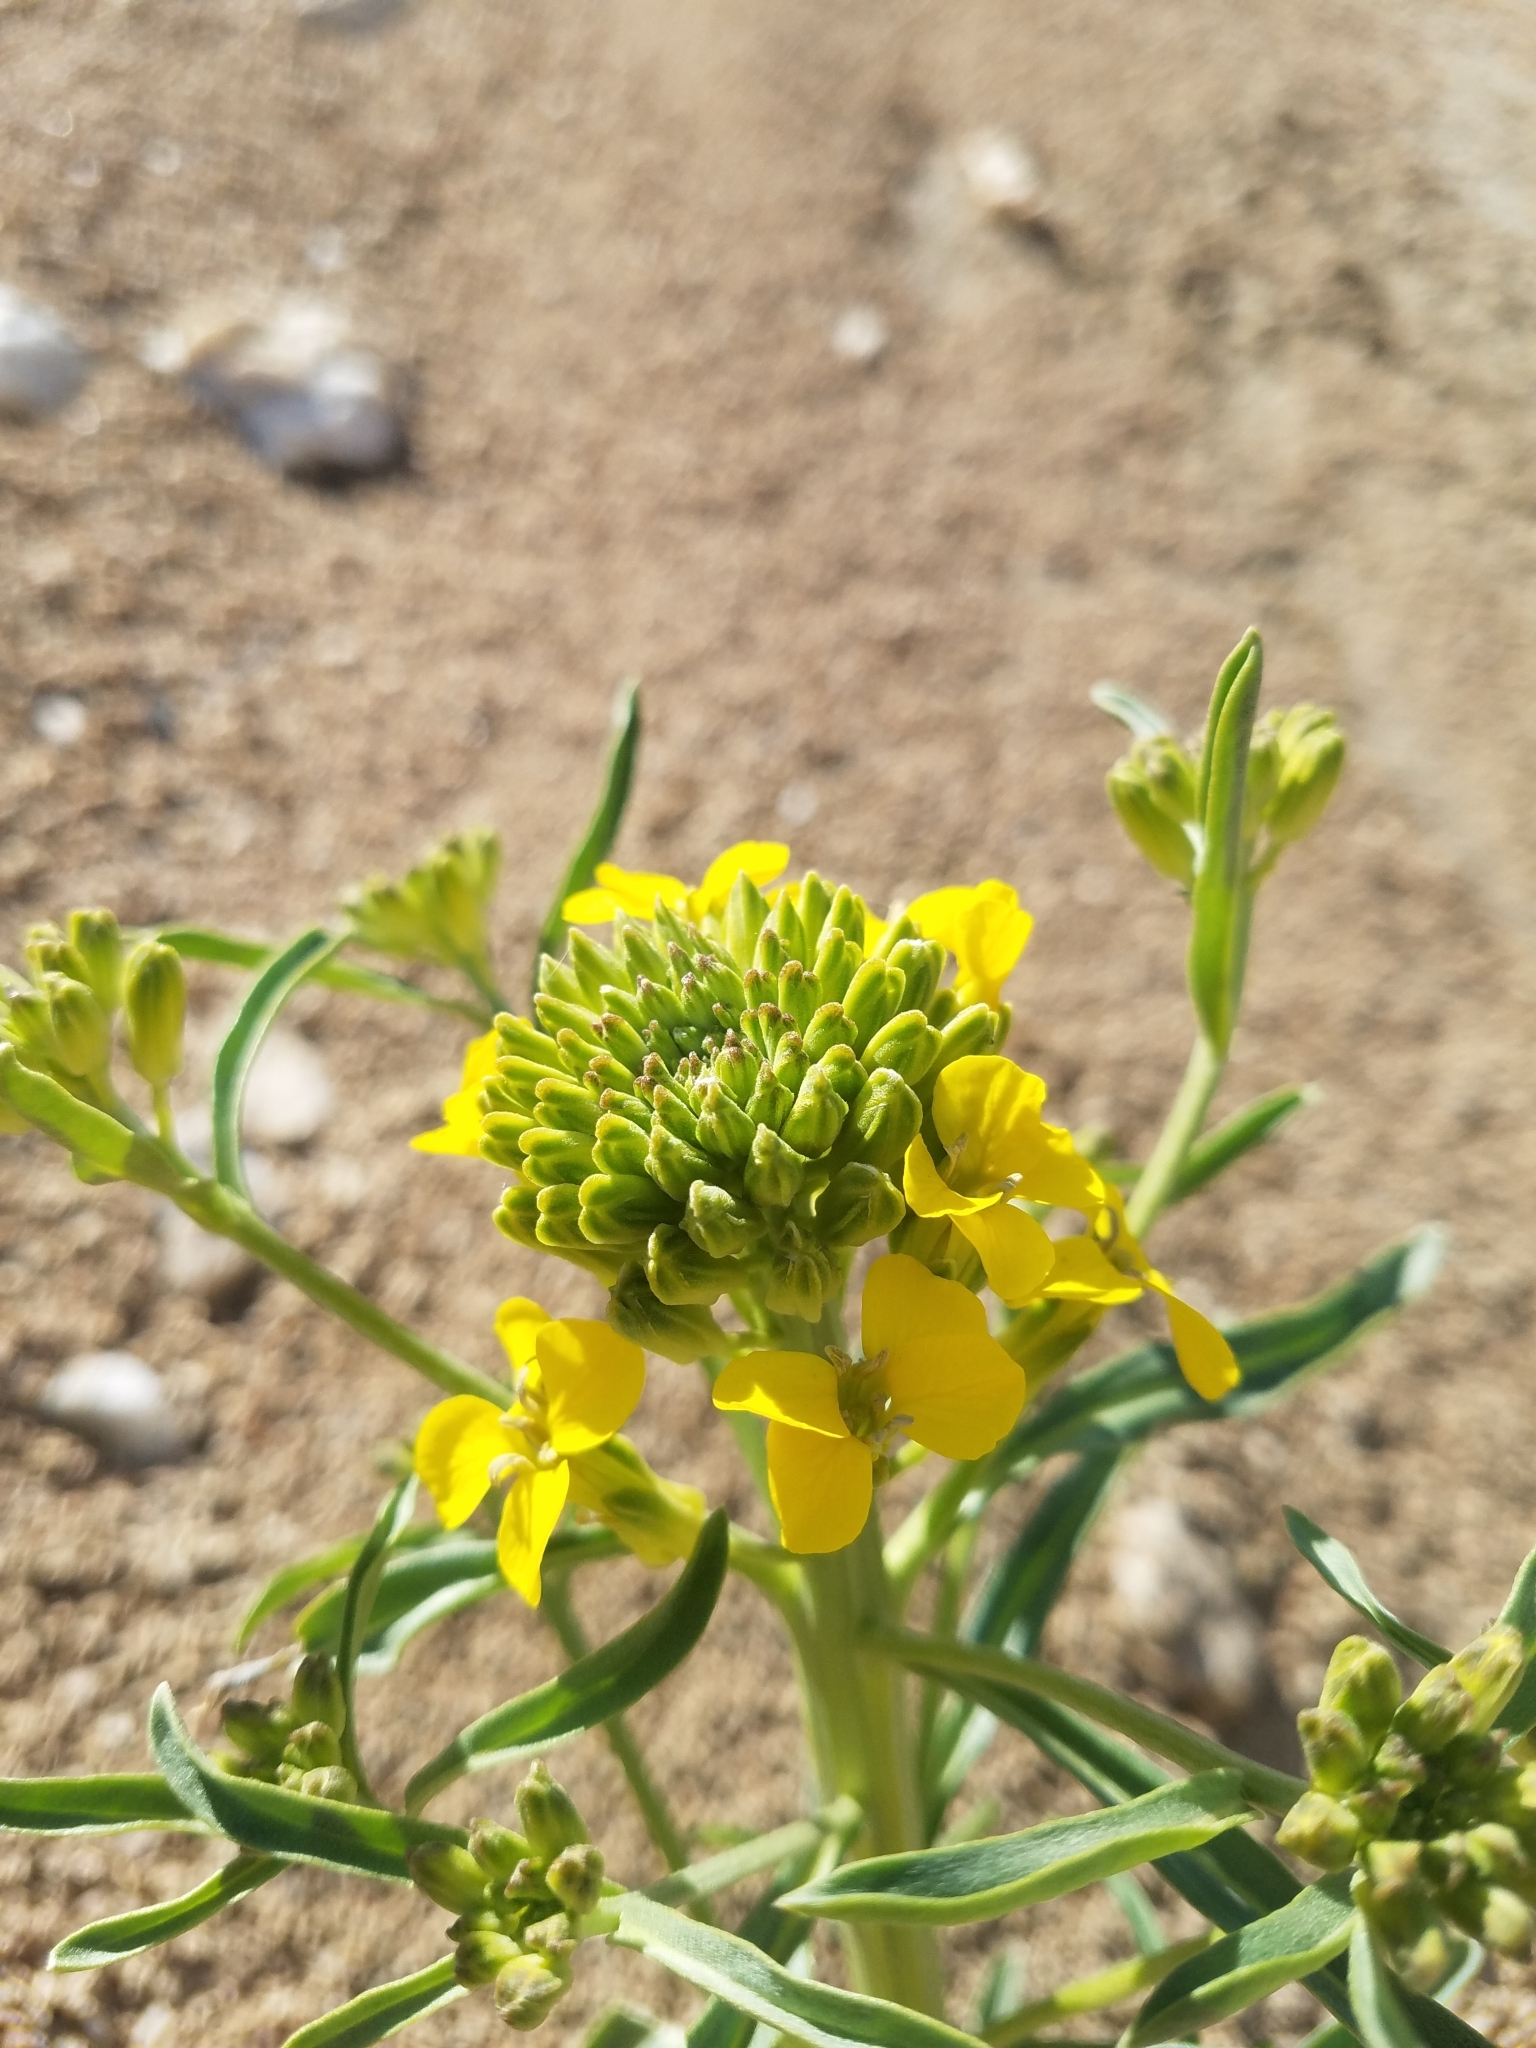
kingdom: Plantae
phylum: Tracheophyta
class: Magnoliopsida
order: Brassicales
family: Cleomaceae
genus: Cleomella
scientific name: Cleomella lutea
